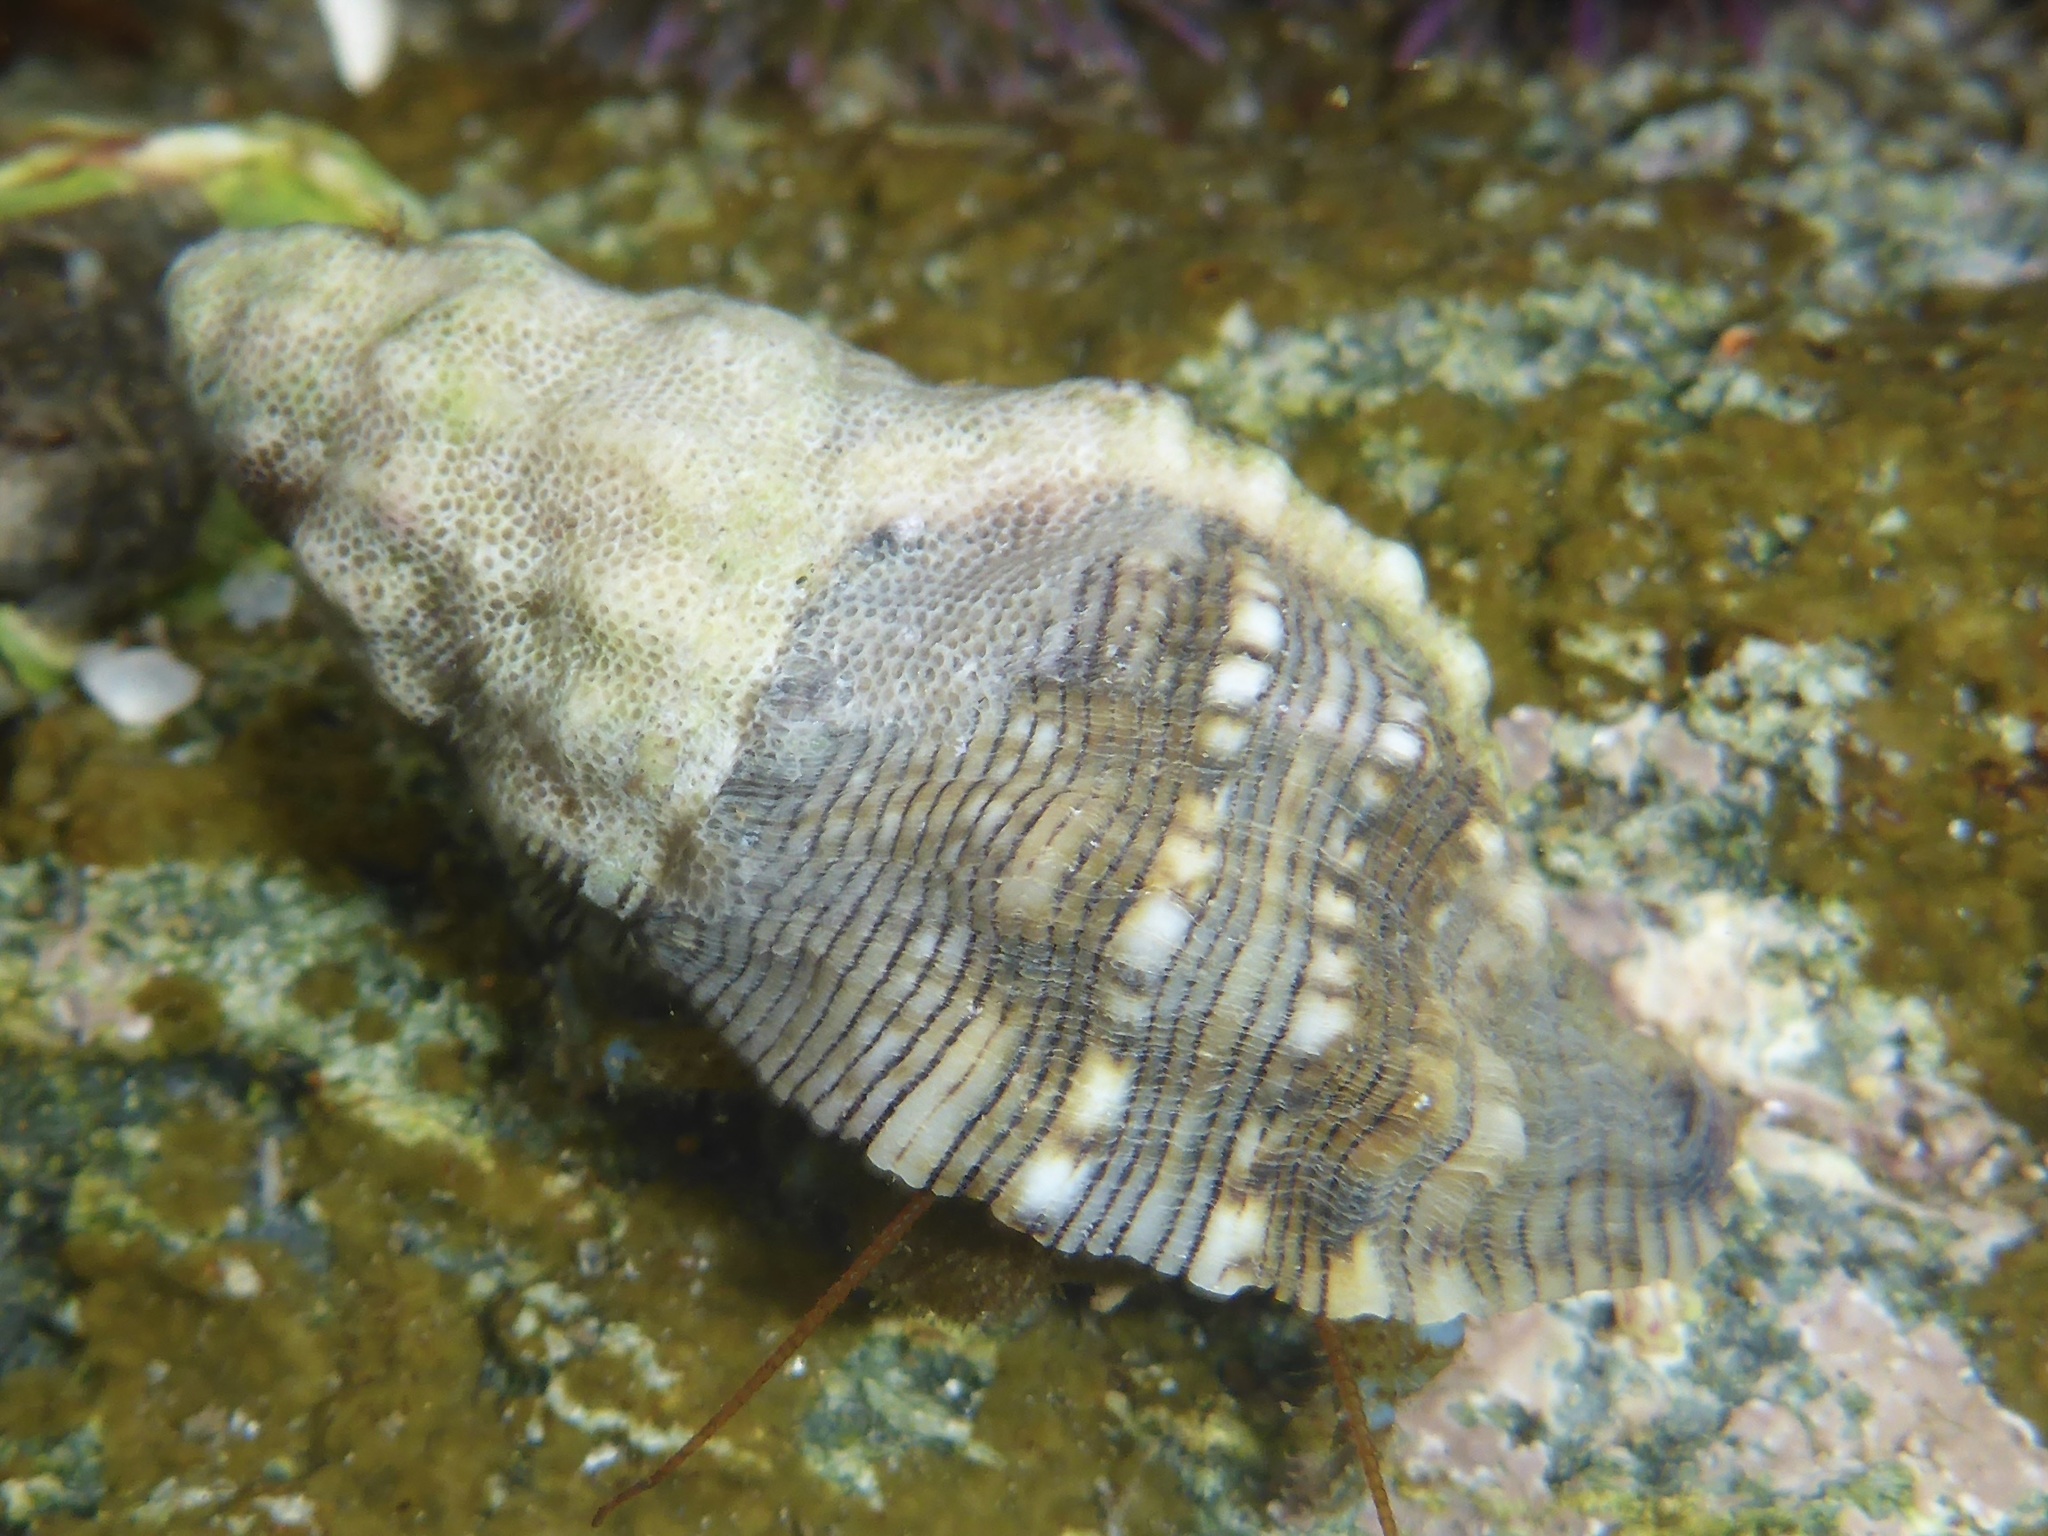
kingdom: Animalia
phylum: Mollusca
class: Gastropoda
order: Neogastropoda
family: Muricidae
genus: Roperia
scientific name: Roperia poulsoni
